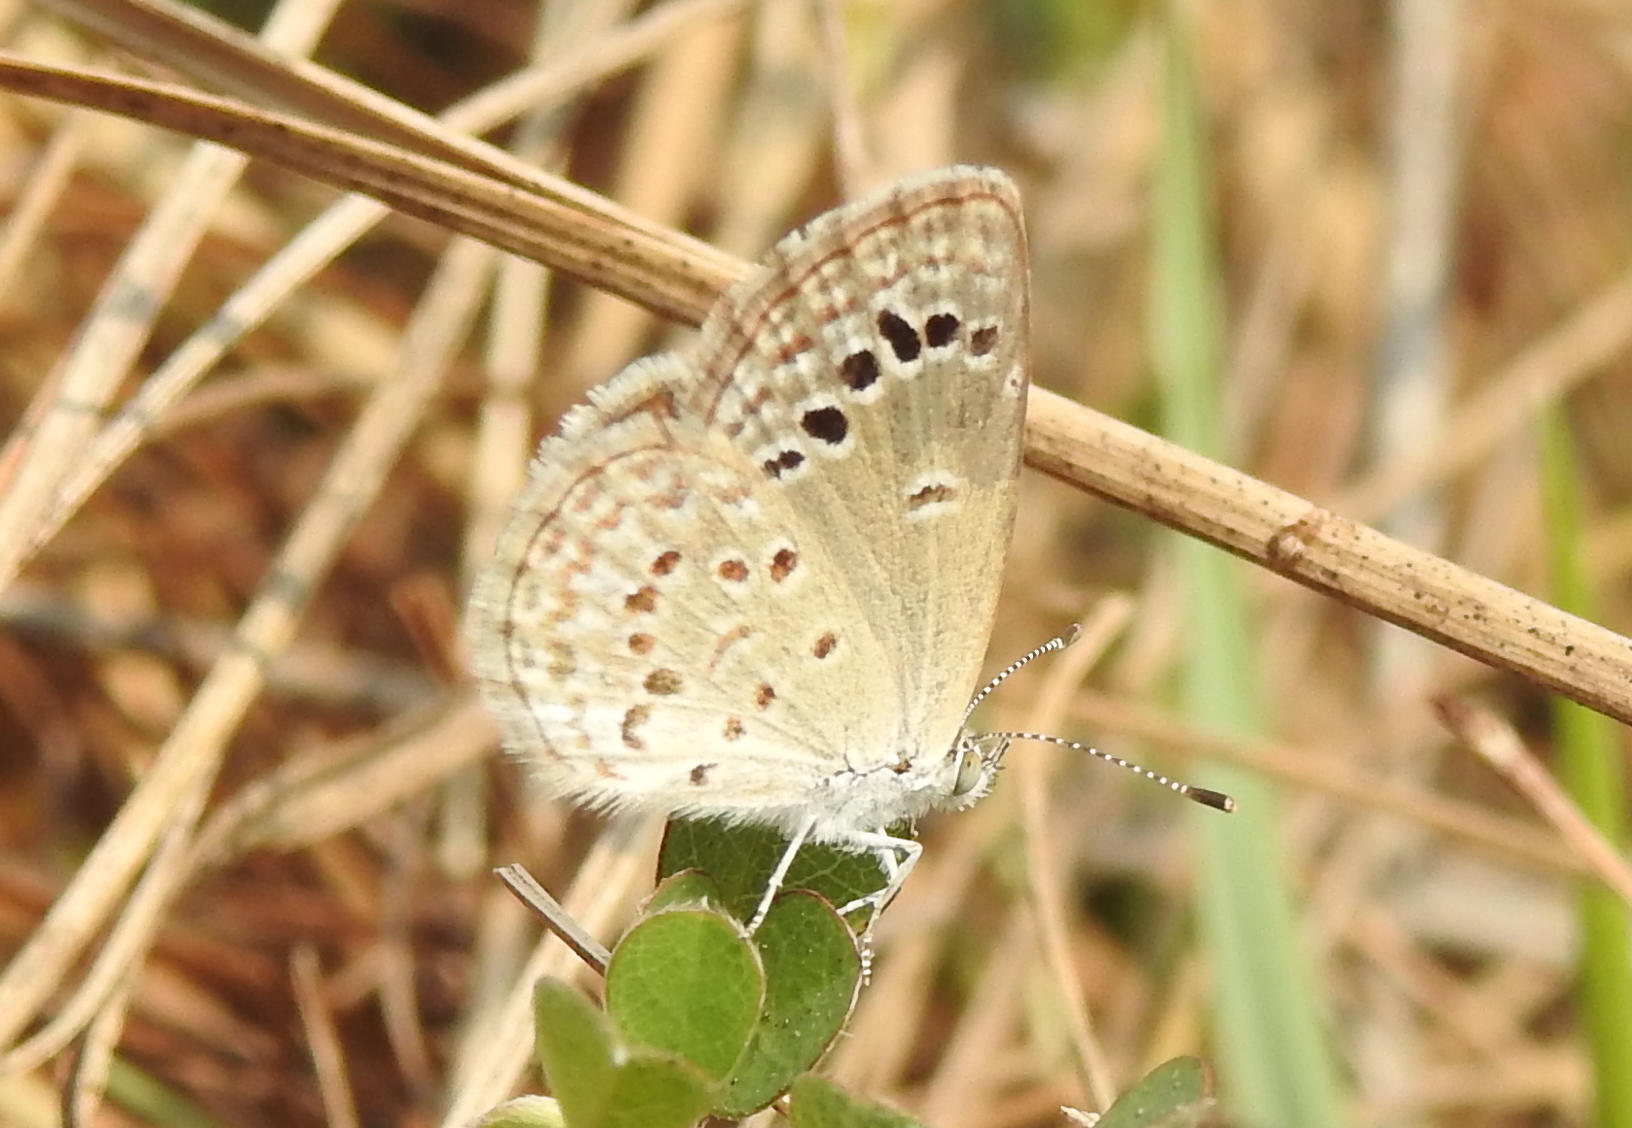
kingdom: Animalia
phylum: Arthropoda
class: Insecta
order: Lepidoptera
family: Lycaenidae
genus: Zizina
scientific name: Zizina otis
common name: Lesser grass blue
